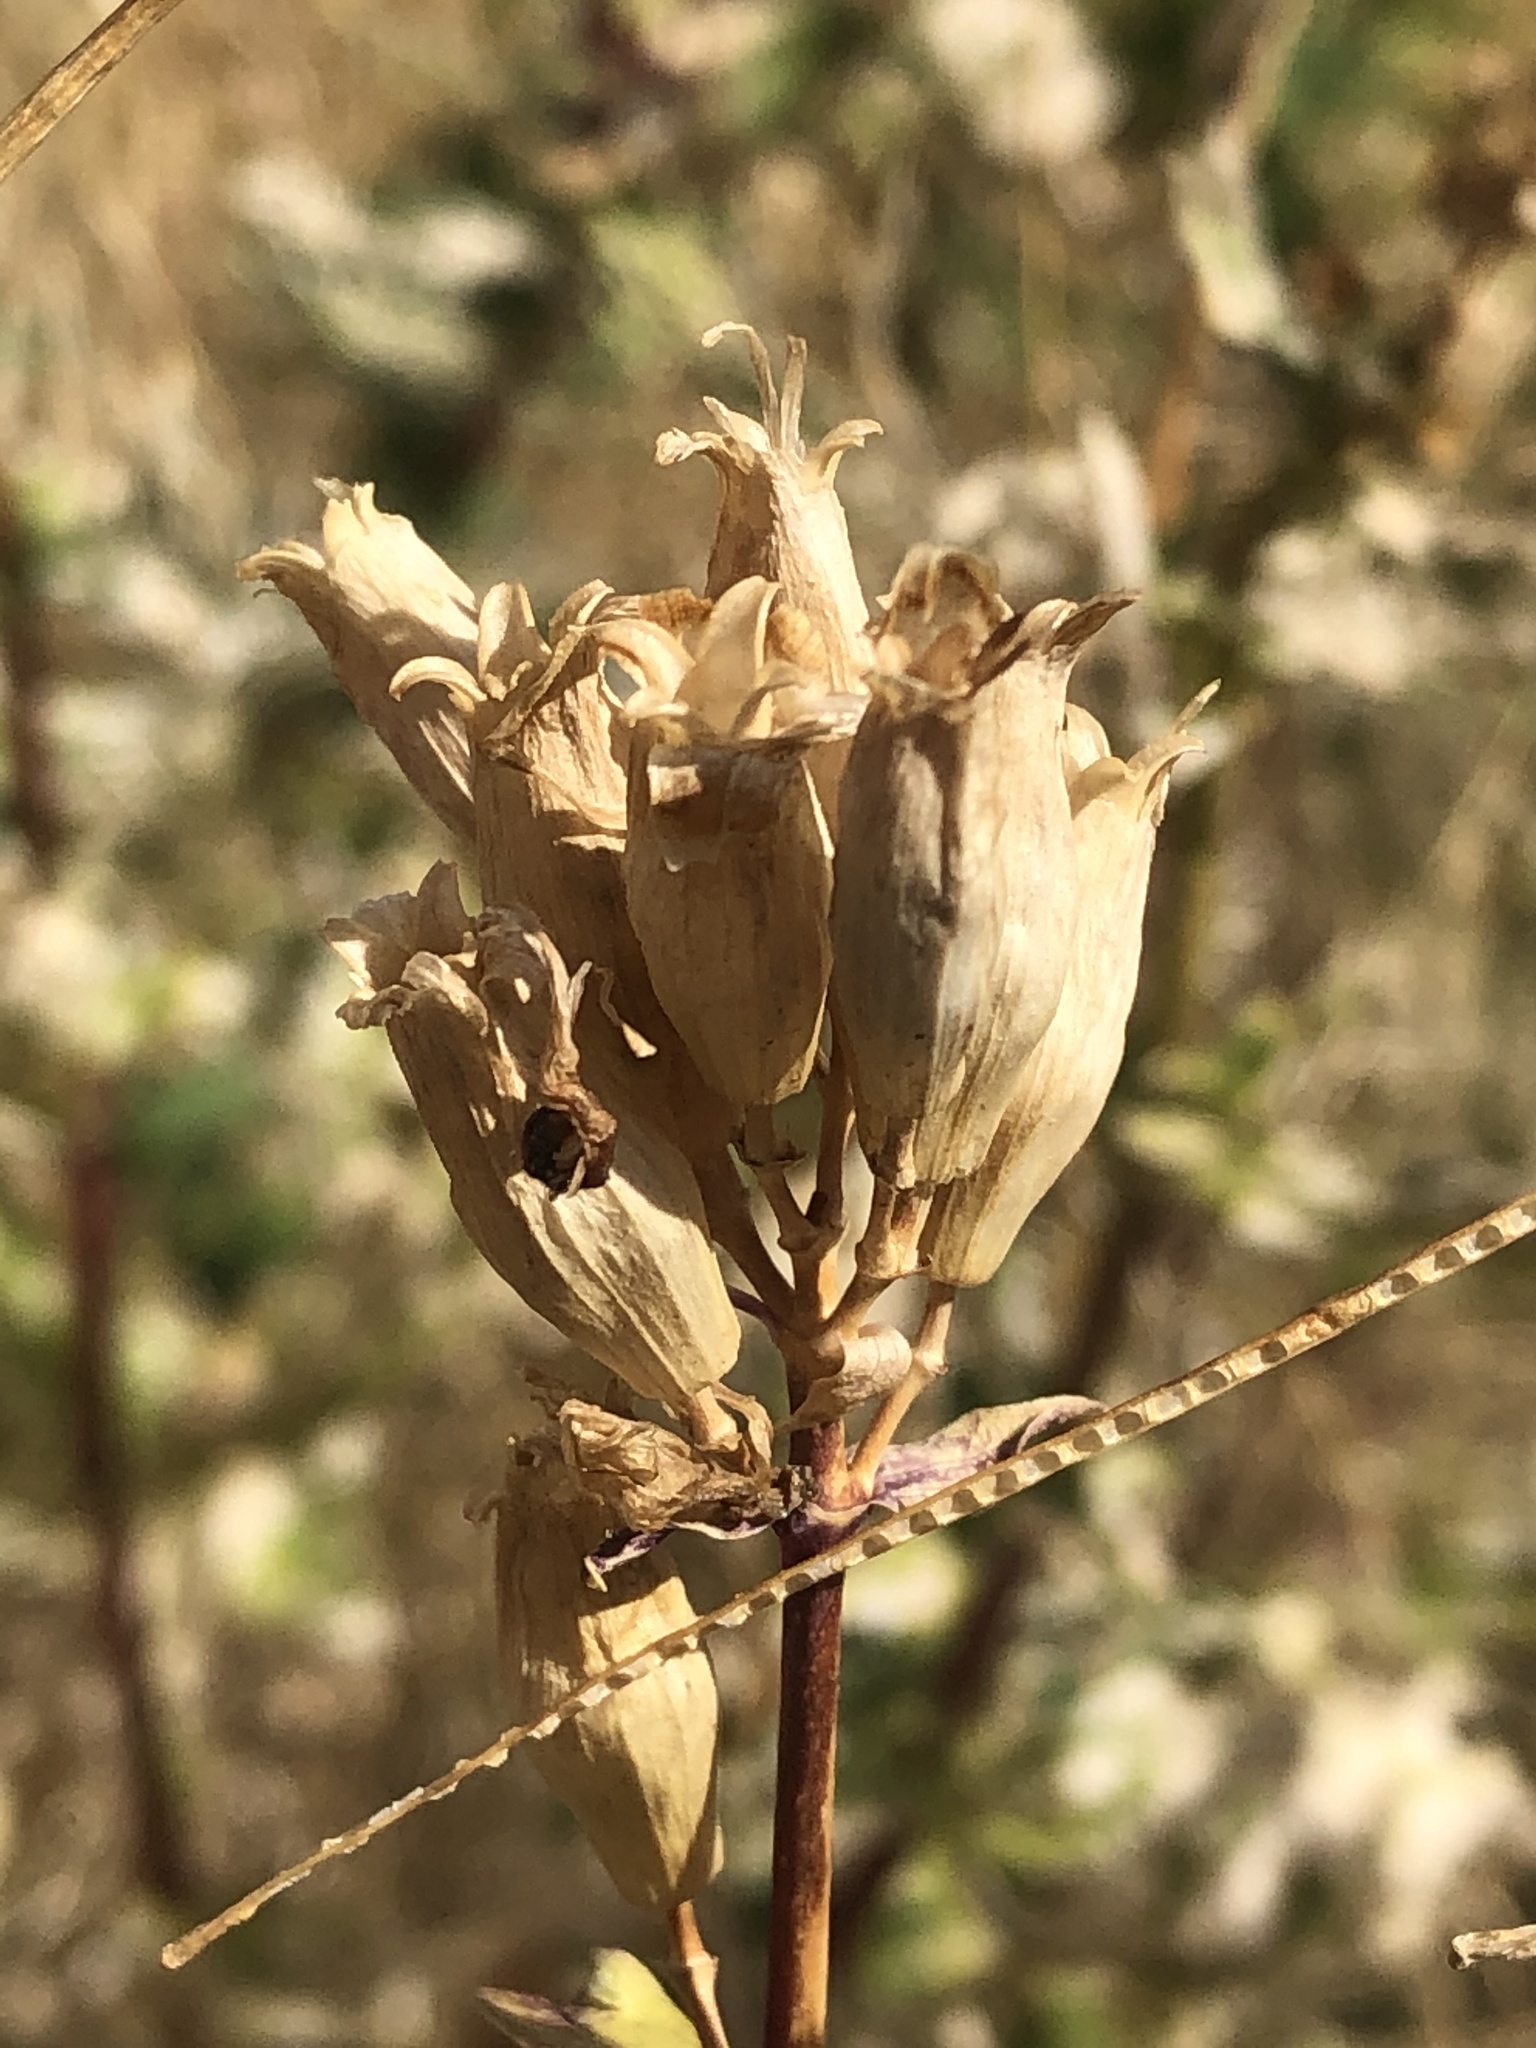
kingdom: Plantae
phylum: Tracheophyta
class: Magnoliopsida
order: Caryophyllales
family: Caryophyllaceae
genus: Saponaria
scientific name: Saponaria officinalis
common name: Soapwort
